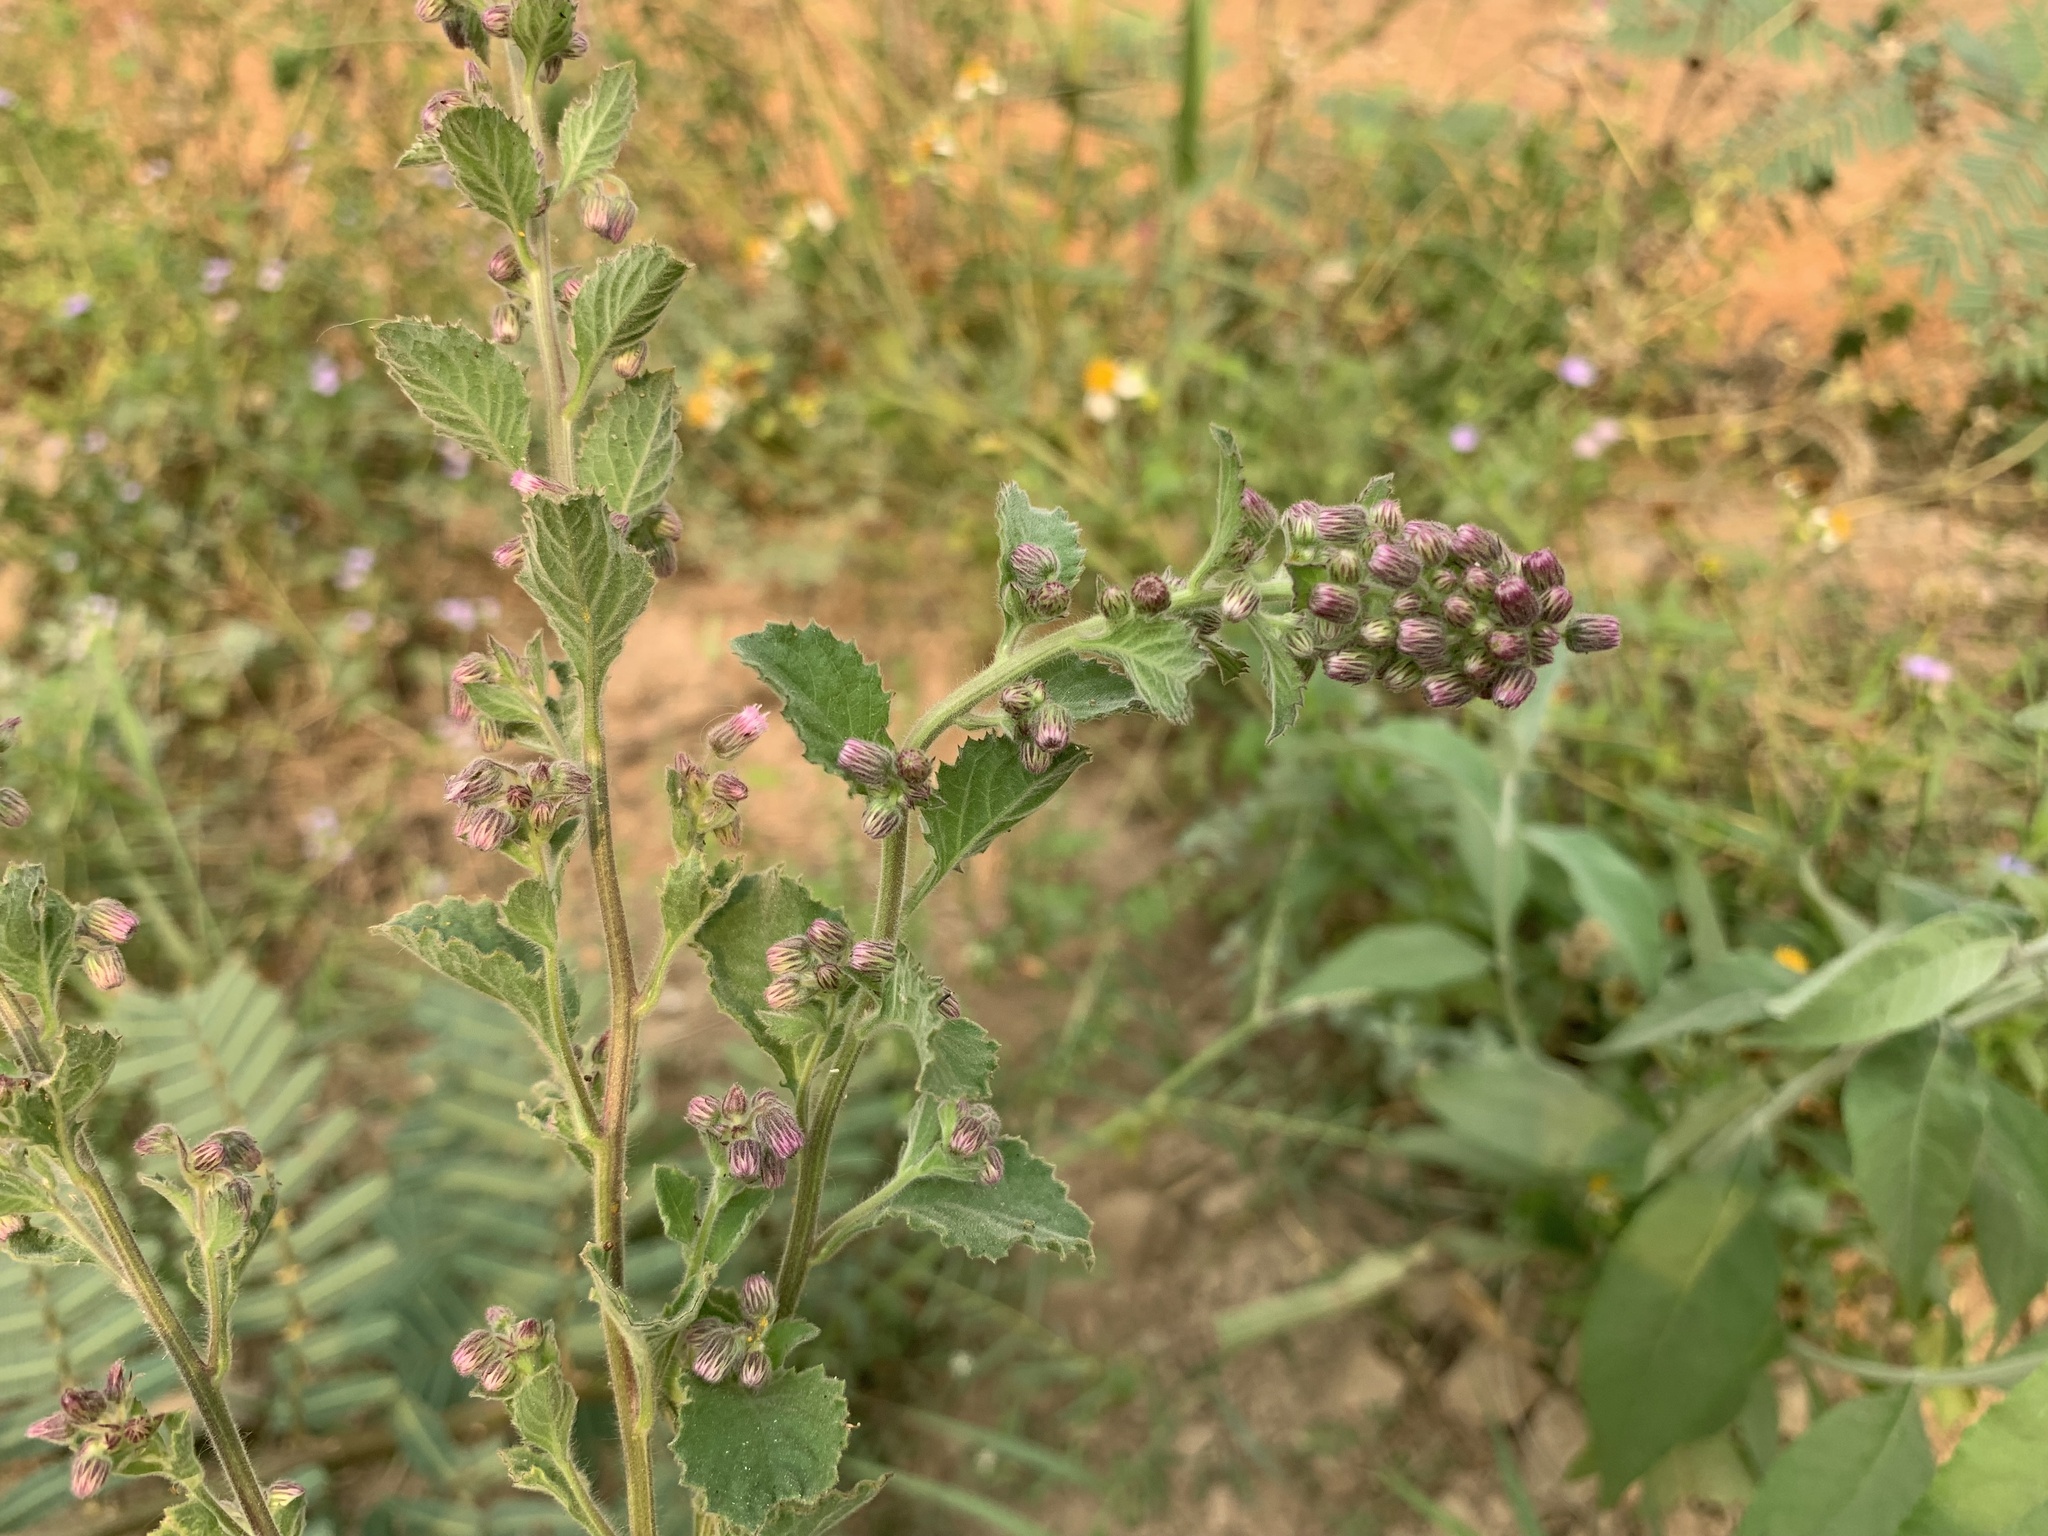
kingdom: Plantae
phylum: Tracheophyta
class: Magnoliopsida
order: Asterales
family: Asteraceae
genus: Blumea
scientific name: Blumea axillaris
